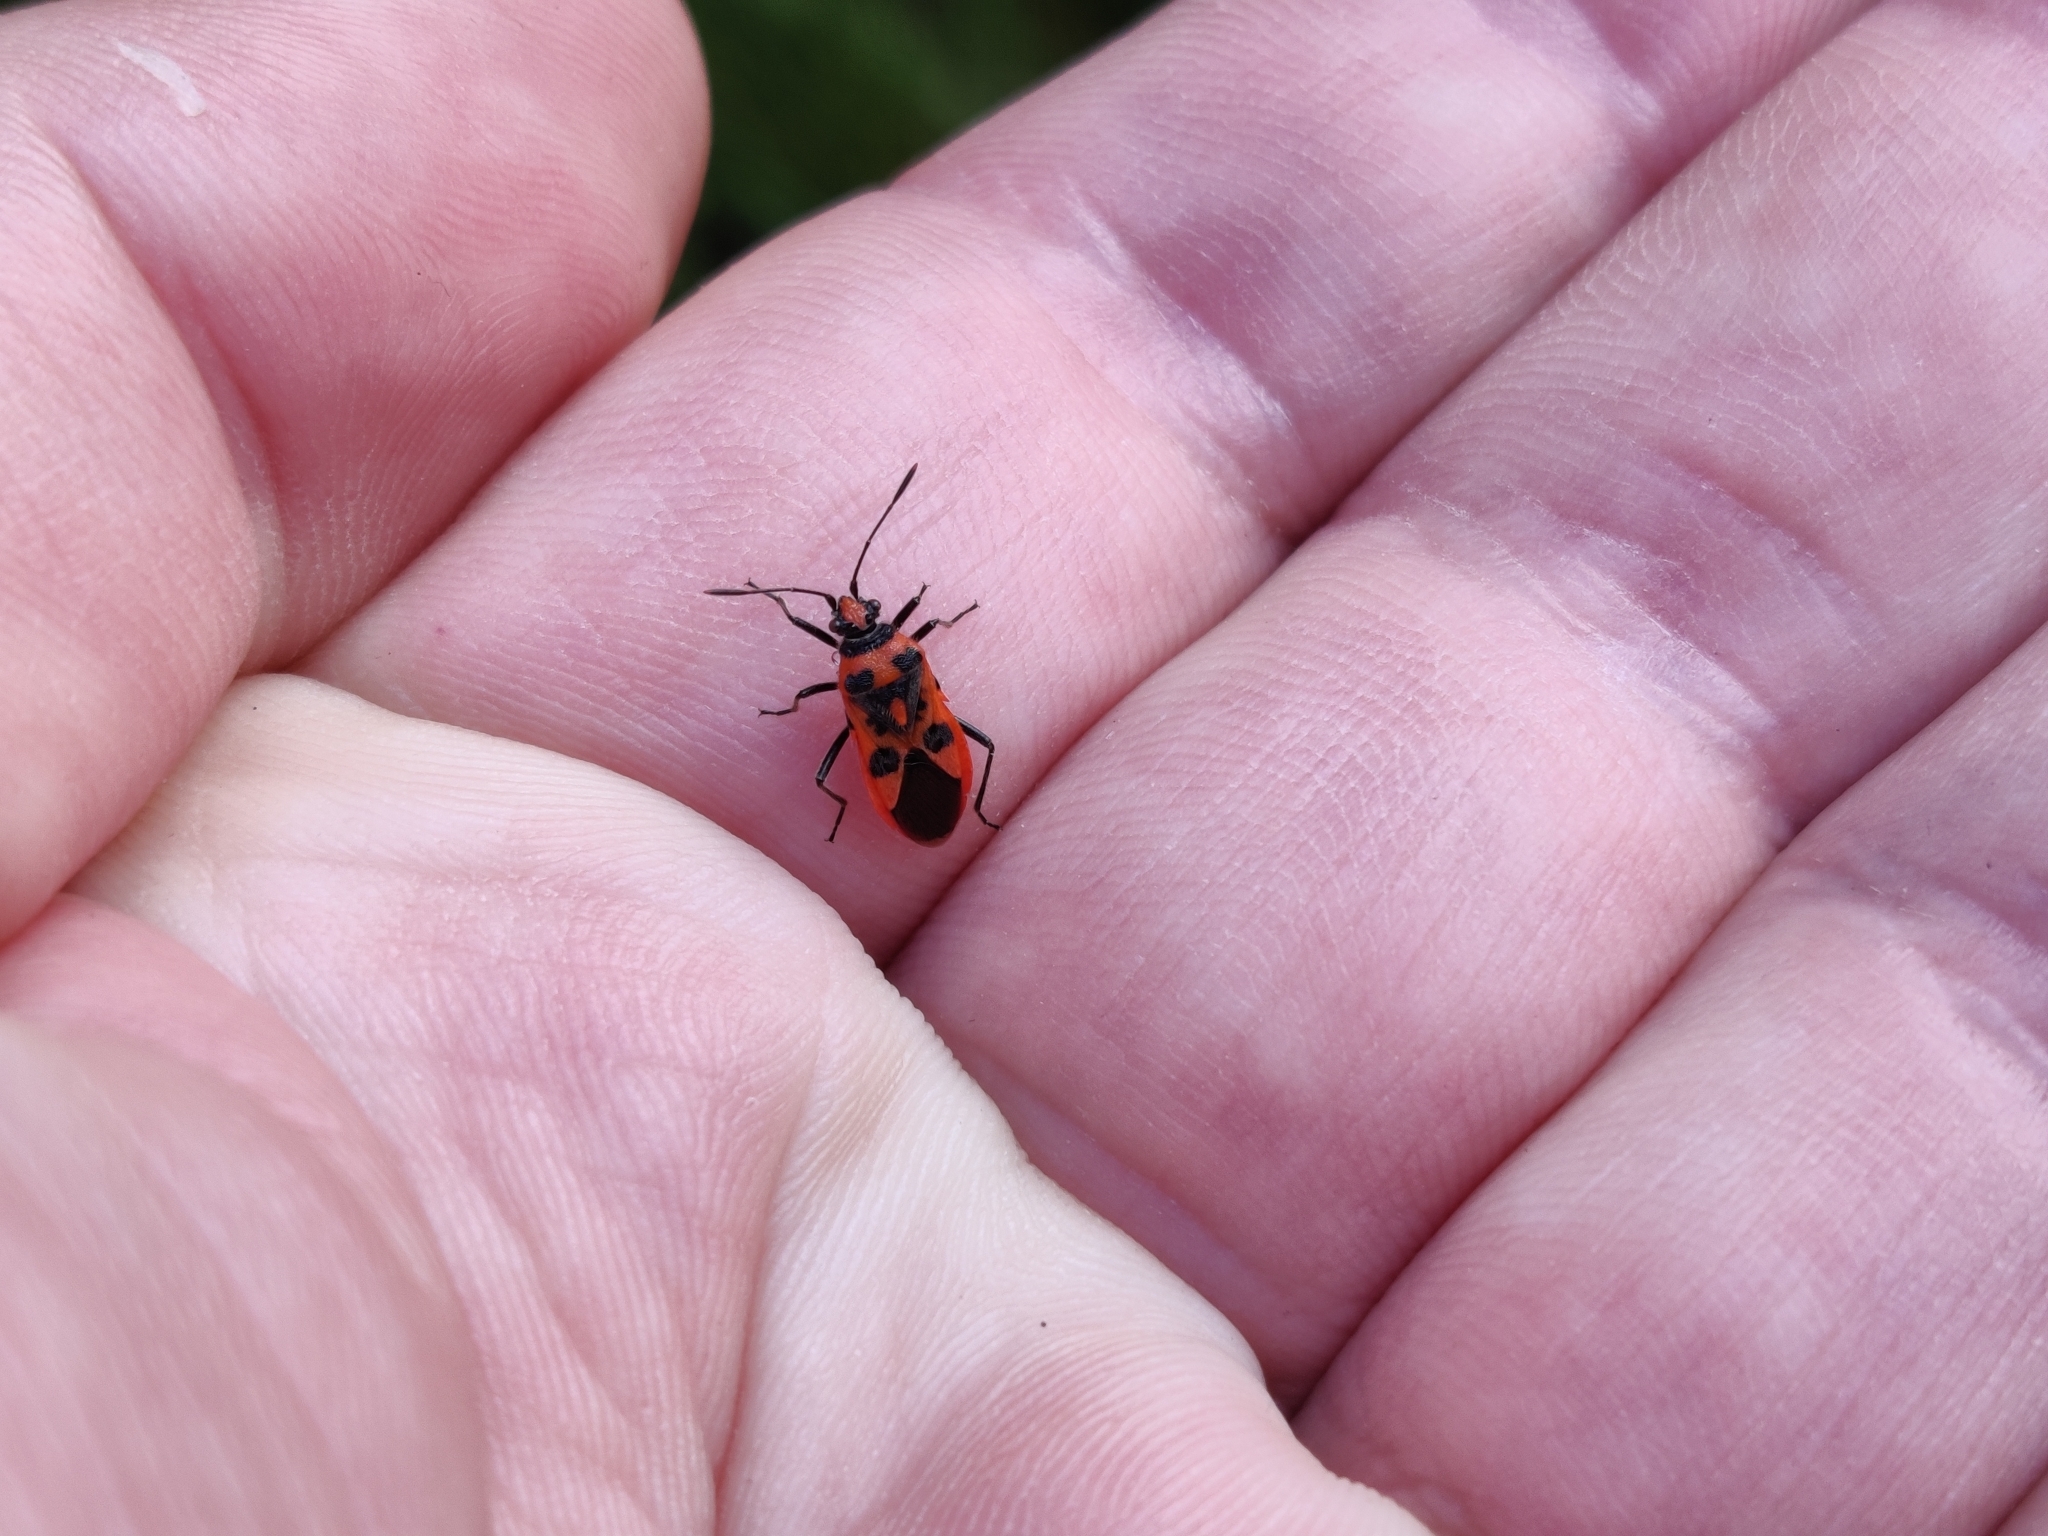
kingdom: Animalia
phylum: Arthropoda
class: Insecta
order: Hemiptera
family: Rhopalidae
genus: Corizus
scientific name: Corizus hyoscyami
